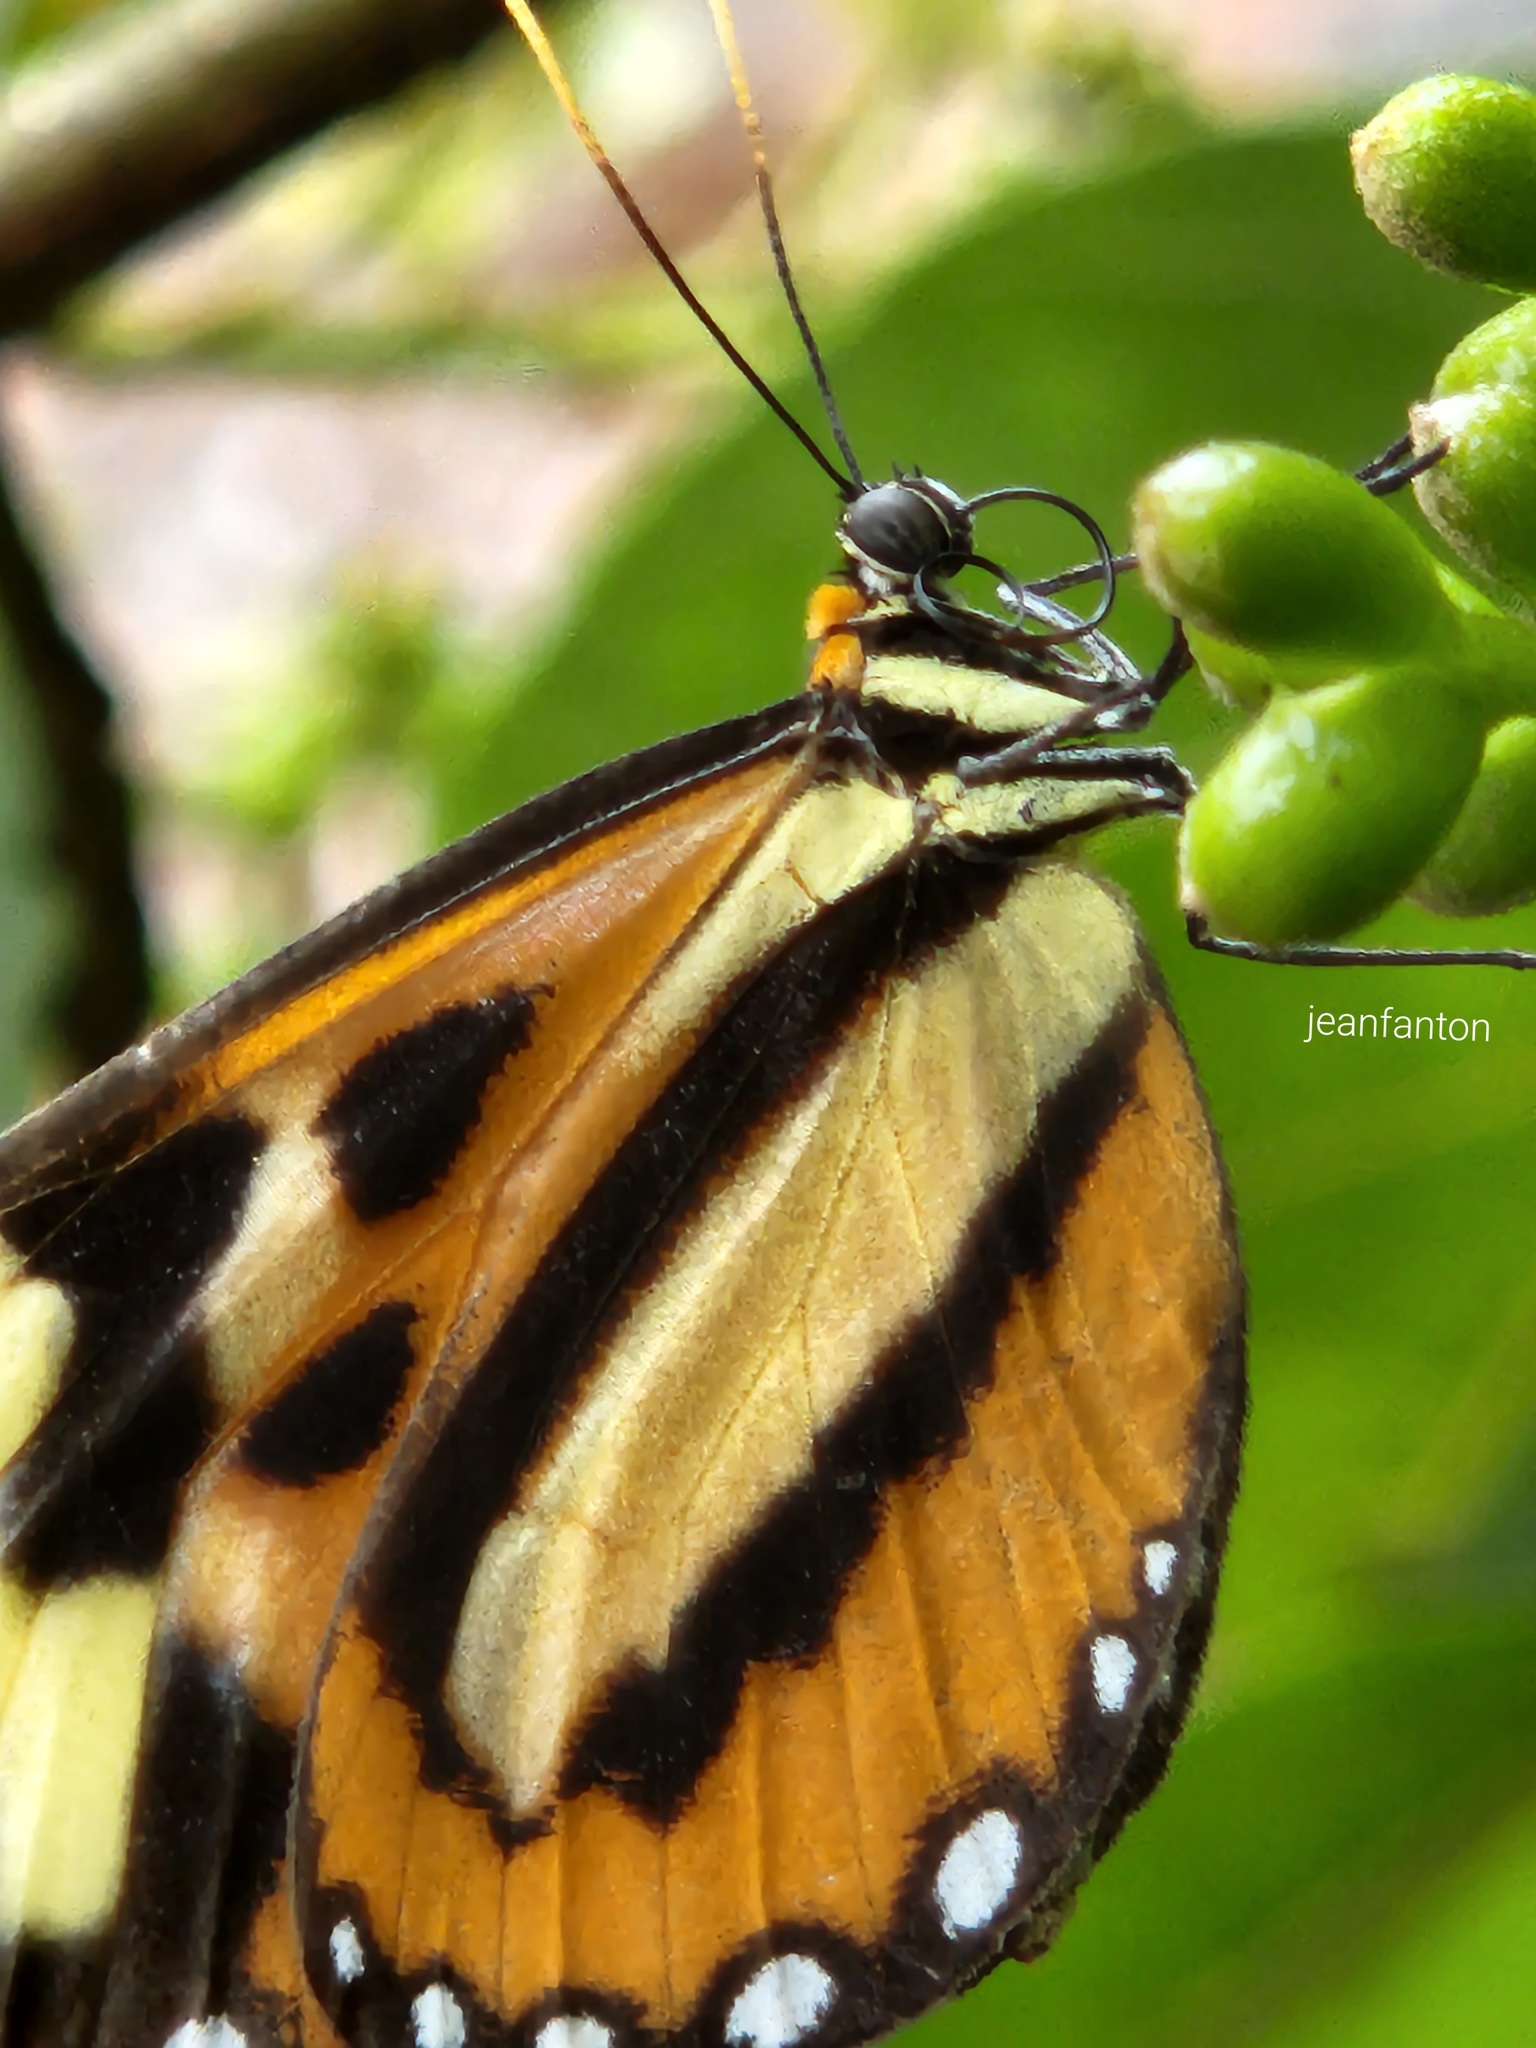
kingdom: Animalia
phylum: Arthropoda
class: Insecta
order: Lepidoptera
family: Nymphalidae
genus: Hypothyris
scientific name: Hypothyris euclea
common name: Euclea tigerwing
